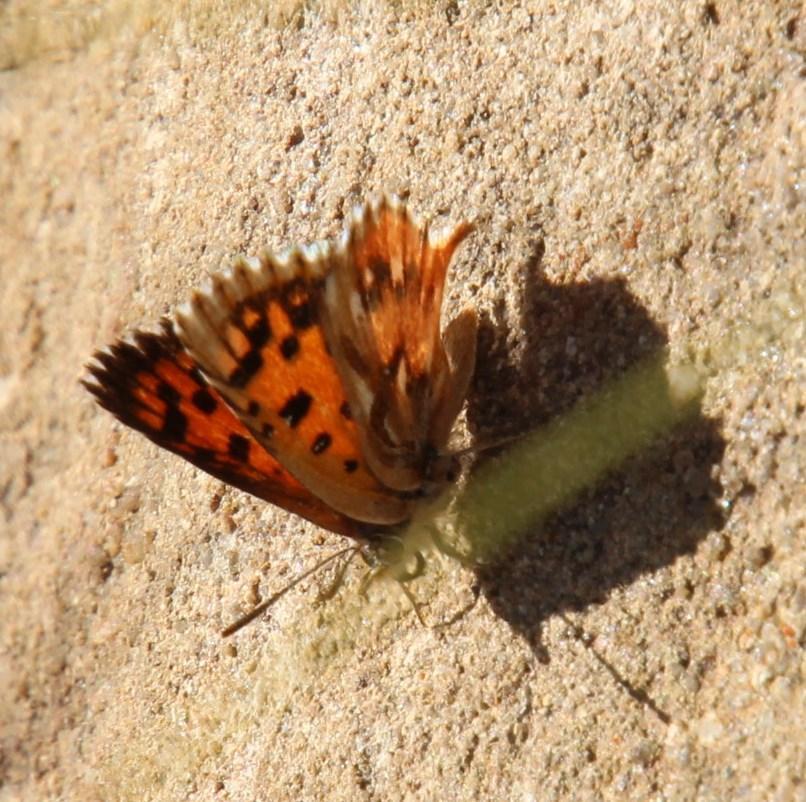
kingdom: Animalia
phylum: Arthropoda
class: Insecta
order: Lepidoptera
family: Lycaenidae
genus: Poecilmitis
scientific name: Poecilmitis braueri
